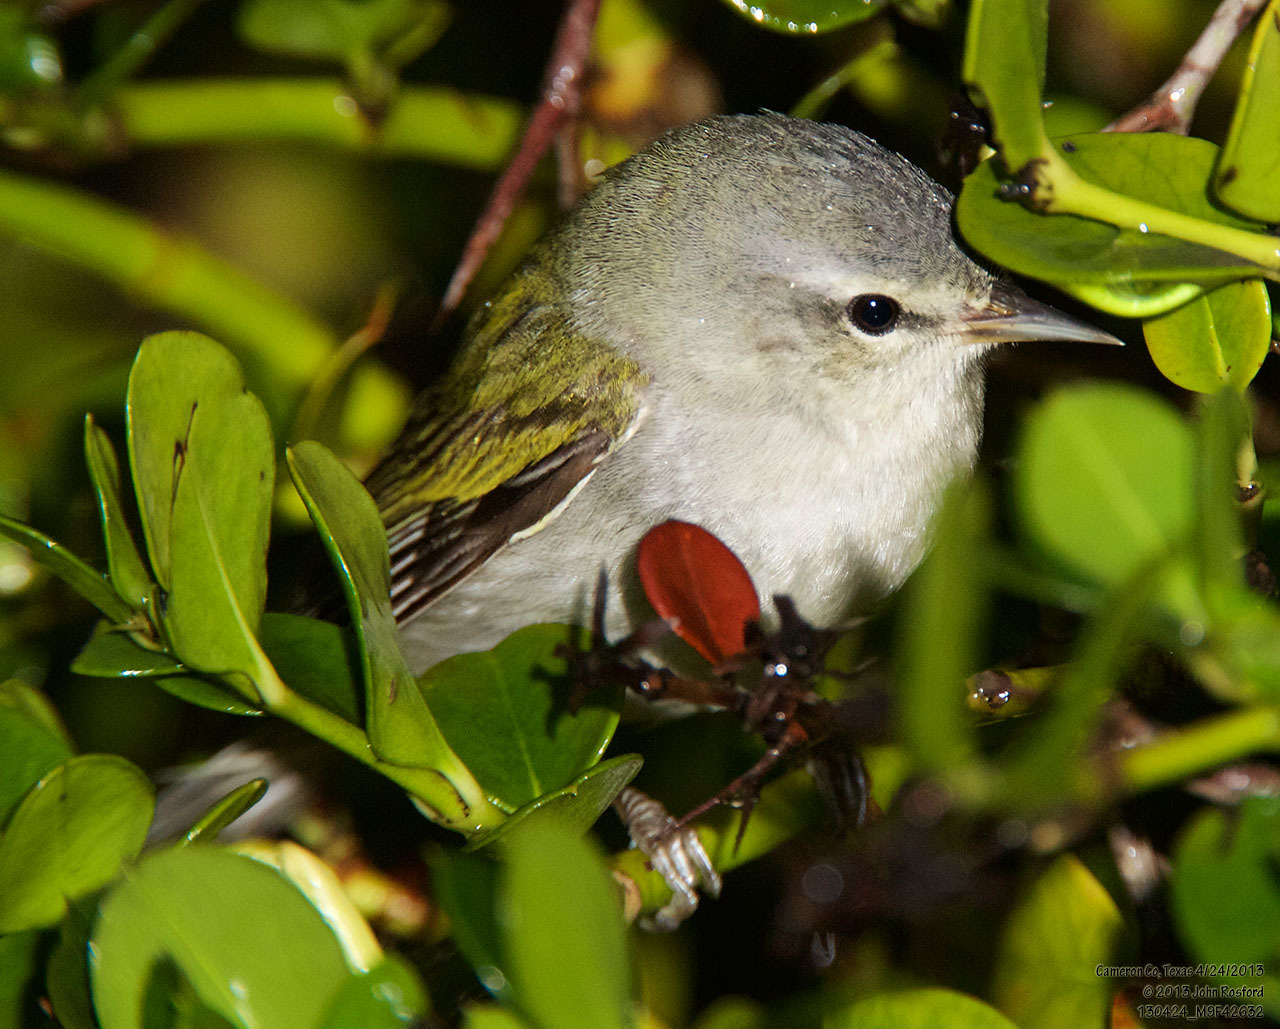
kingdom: Animalia
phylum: Chordata
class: Aves
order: Passeriformes
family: Parulidae
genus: Leiothlypis
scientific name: Leiothlypis peregrina
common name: Tennessee warbler
